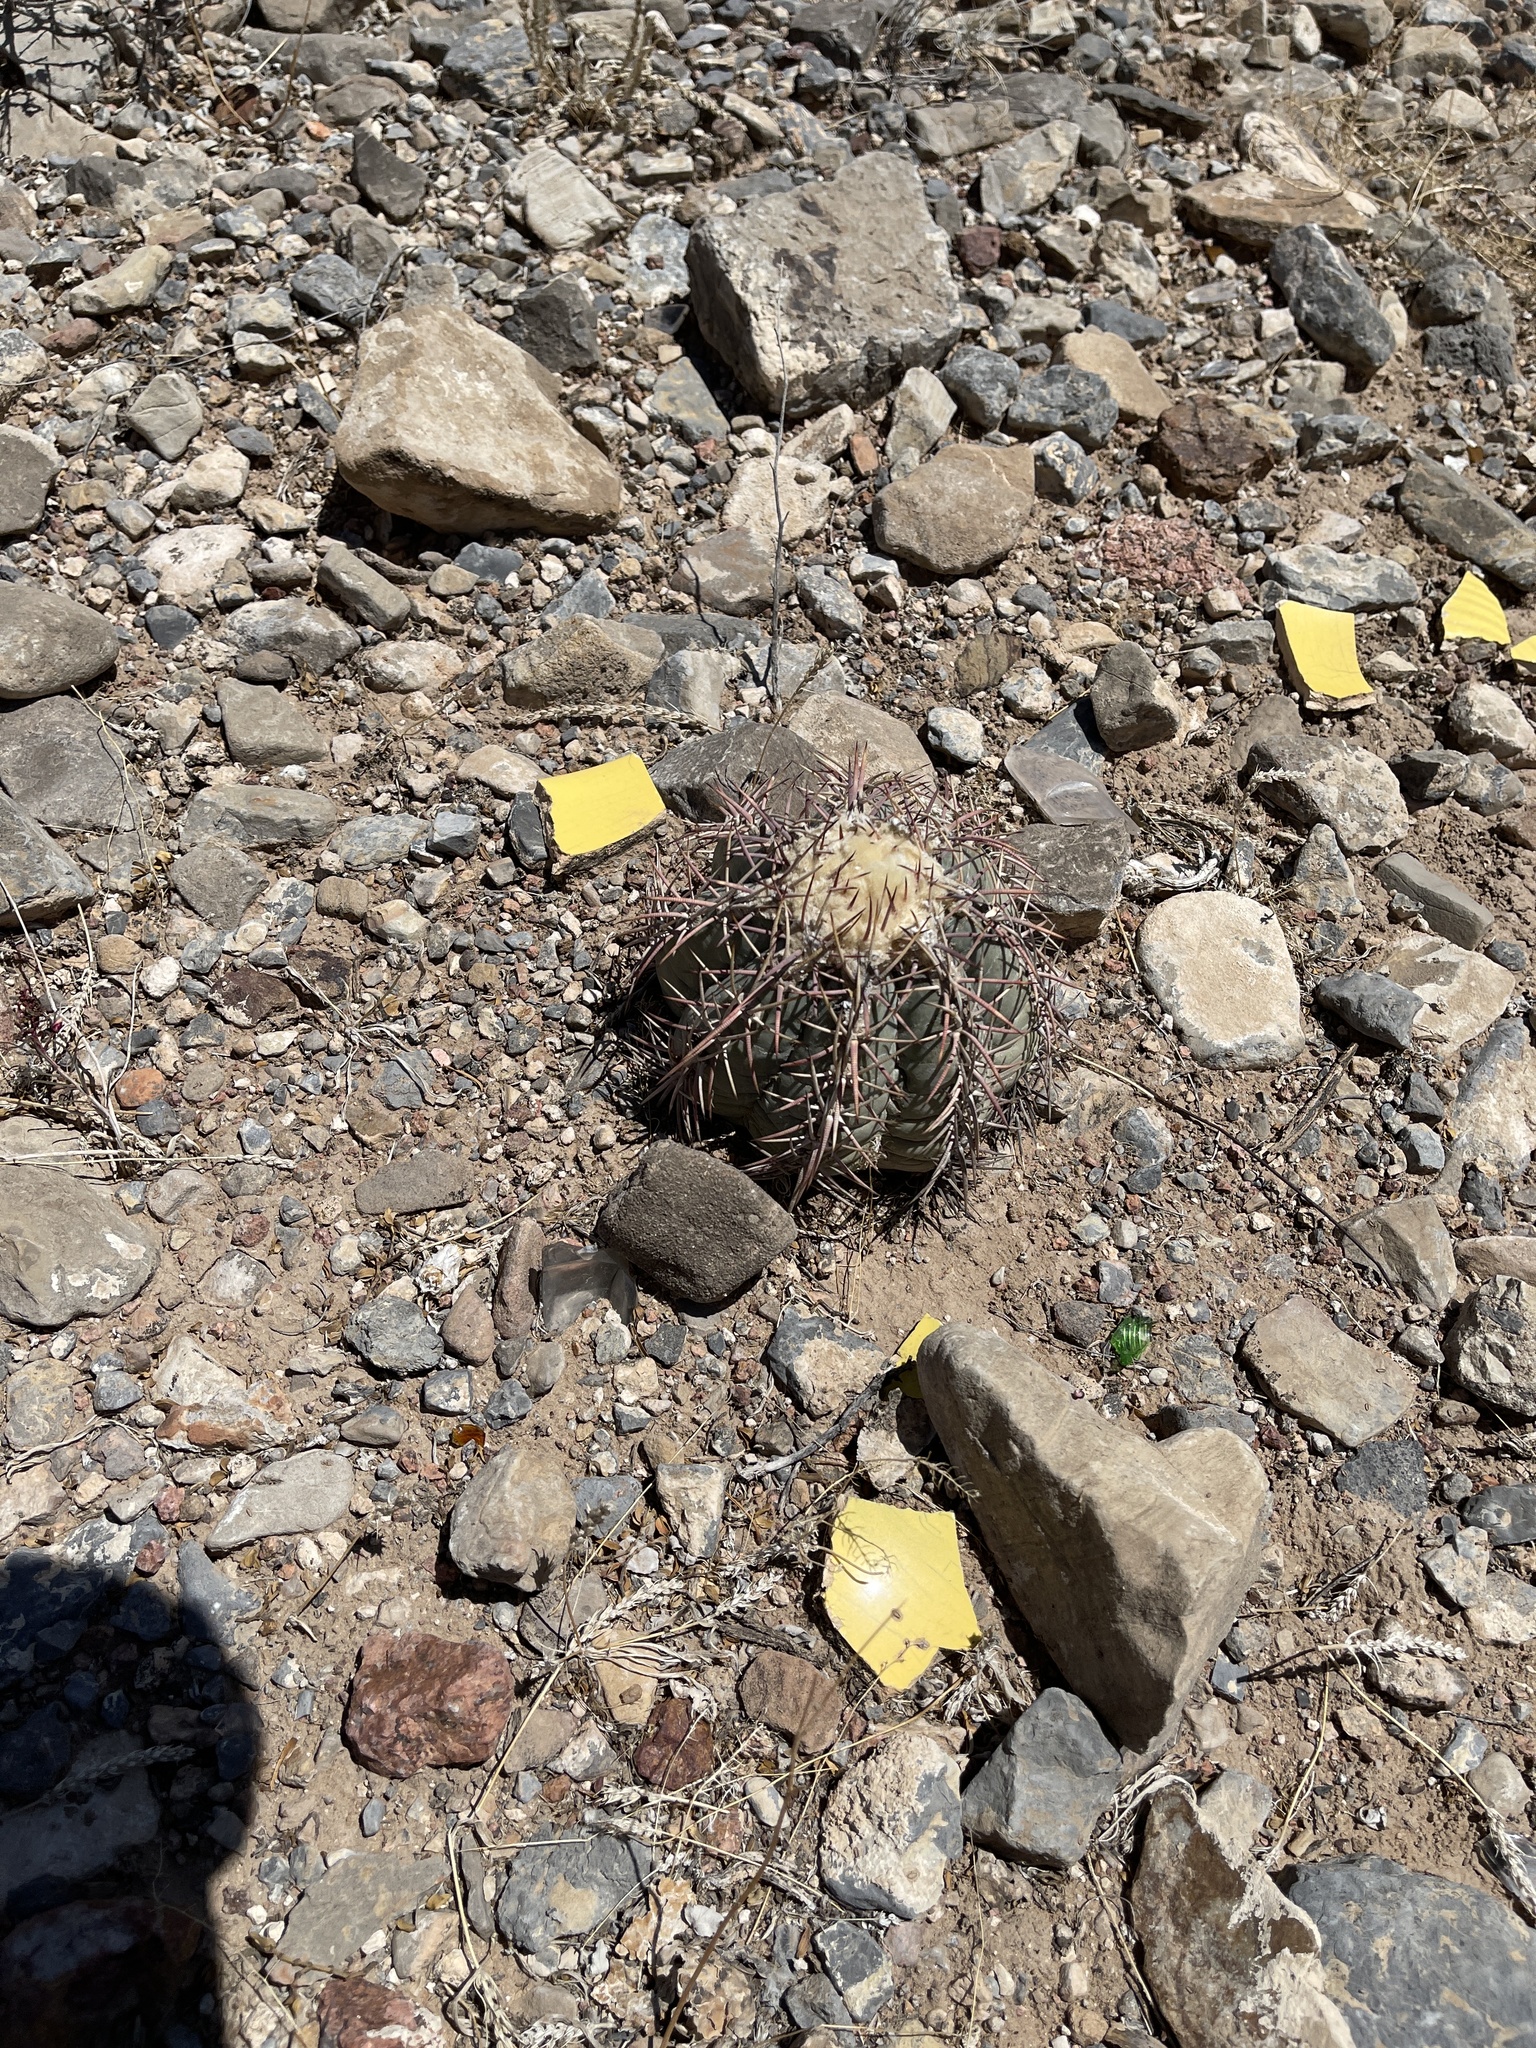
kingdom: Plantae
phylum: Tracheophyta
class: Magnoliopsida
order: Caryophyllales
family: Cactaceae
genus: Echinocactus
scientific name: Echinocactus horizonthalonius
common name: Devilshead
